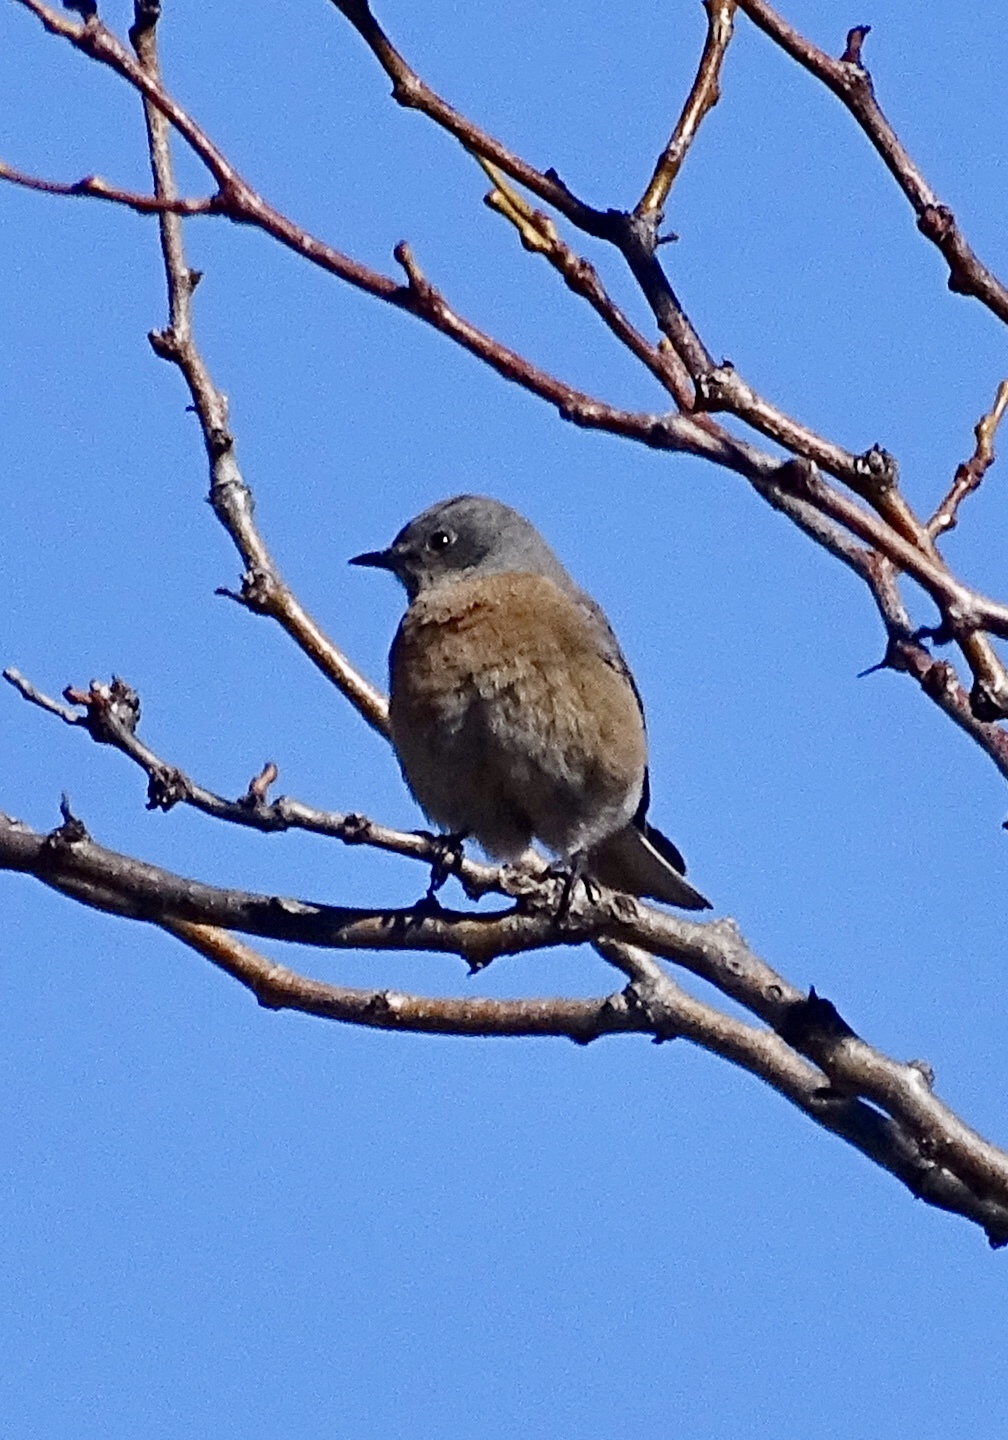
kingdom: Animalia
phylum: Chordata
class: Aves
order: Passeriformes
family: Turdidae
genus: Sialia
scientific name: Sialia mexicana
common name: Western bluebird
